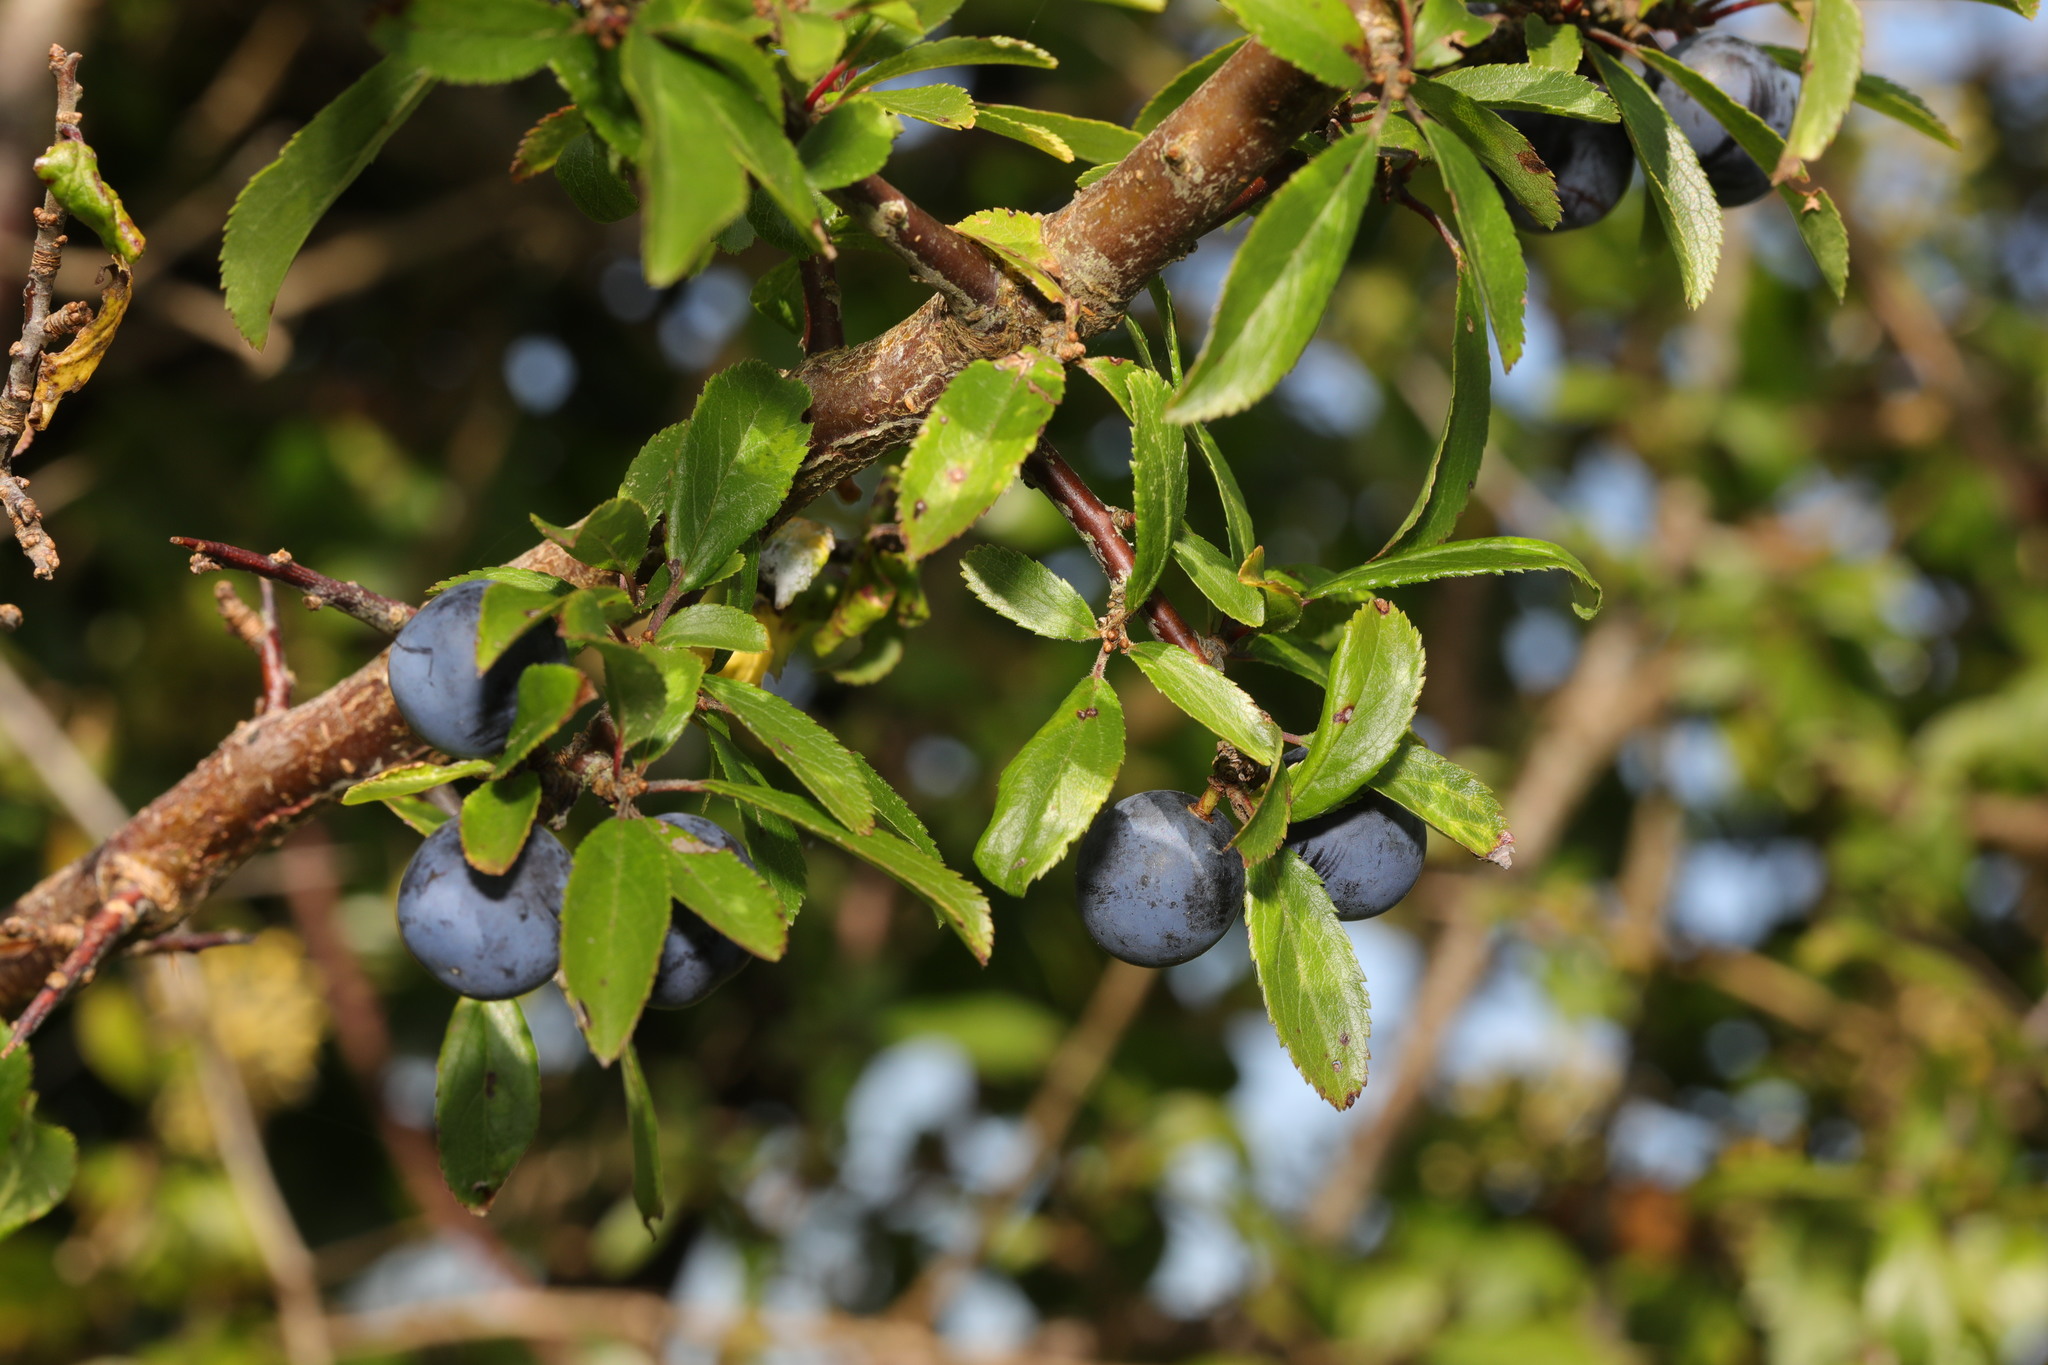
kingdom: Plantae
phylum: Tracheophyta
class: Magnoliopsida
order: Rosales
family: Rosaceae
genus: Prunus
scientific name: Prunus spinosa
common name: Blackthorn
